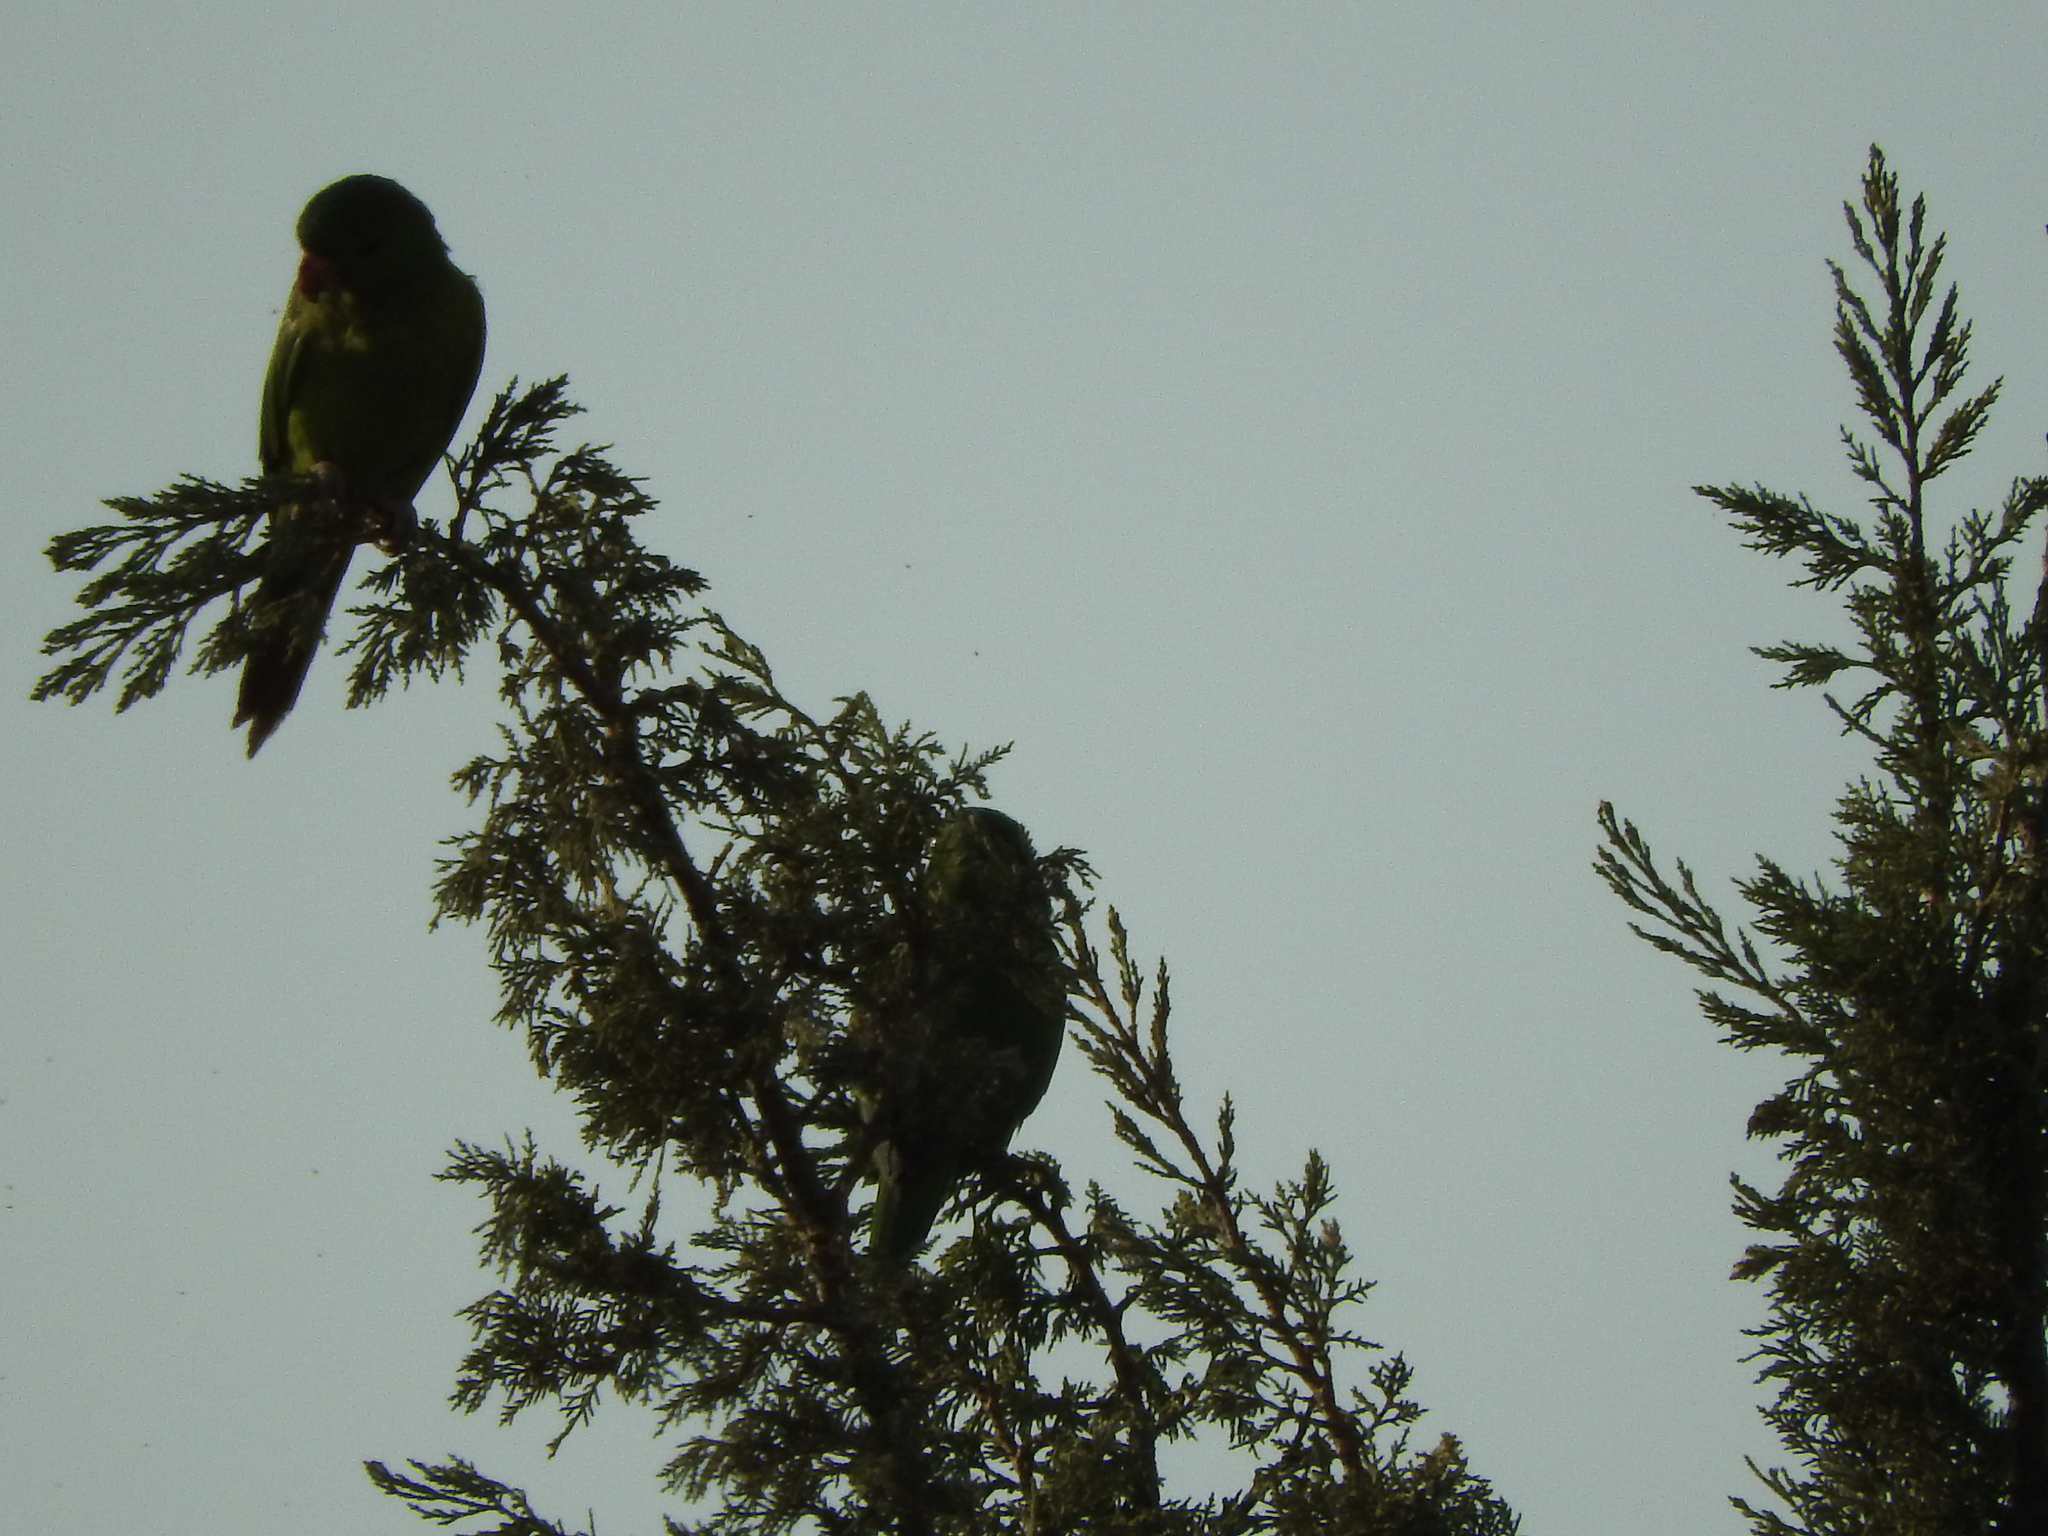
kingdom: Animalia
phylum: Chordata
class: Aves
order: Psittaciformes
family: Psittacidae
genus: Aratinga
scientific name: Aratinga holochlora
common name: Green parakeet
